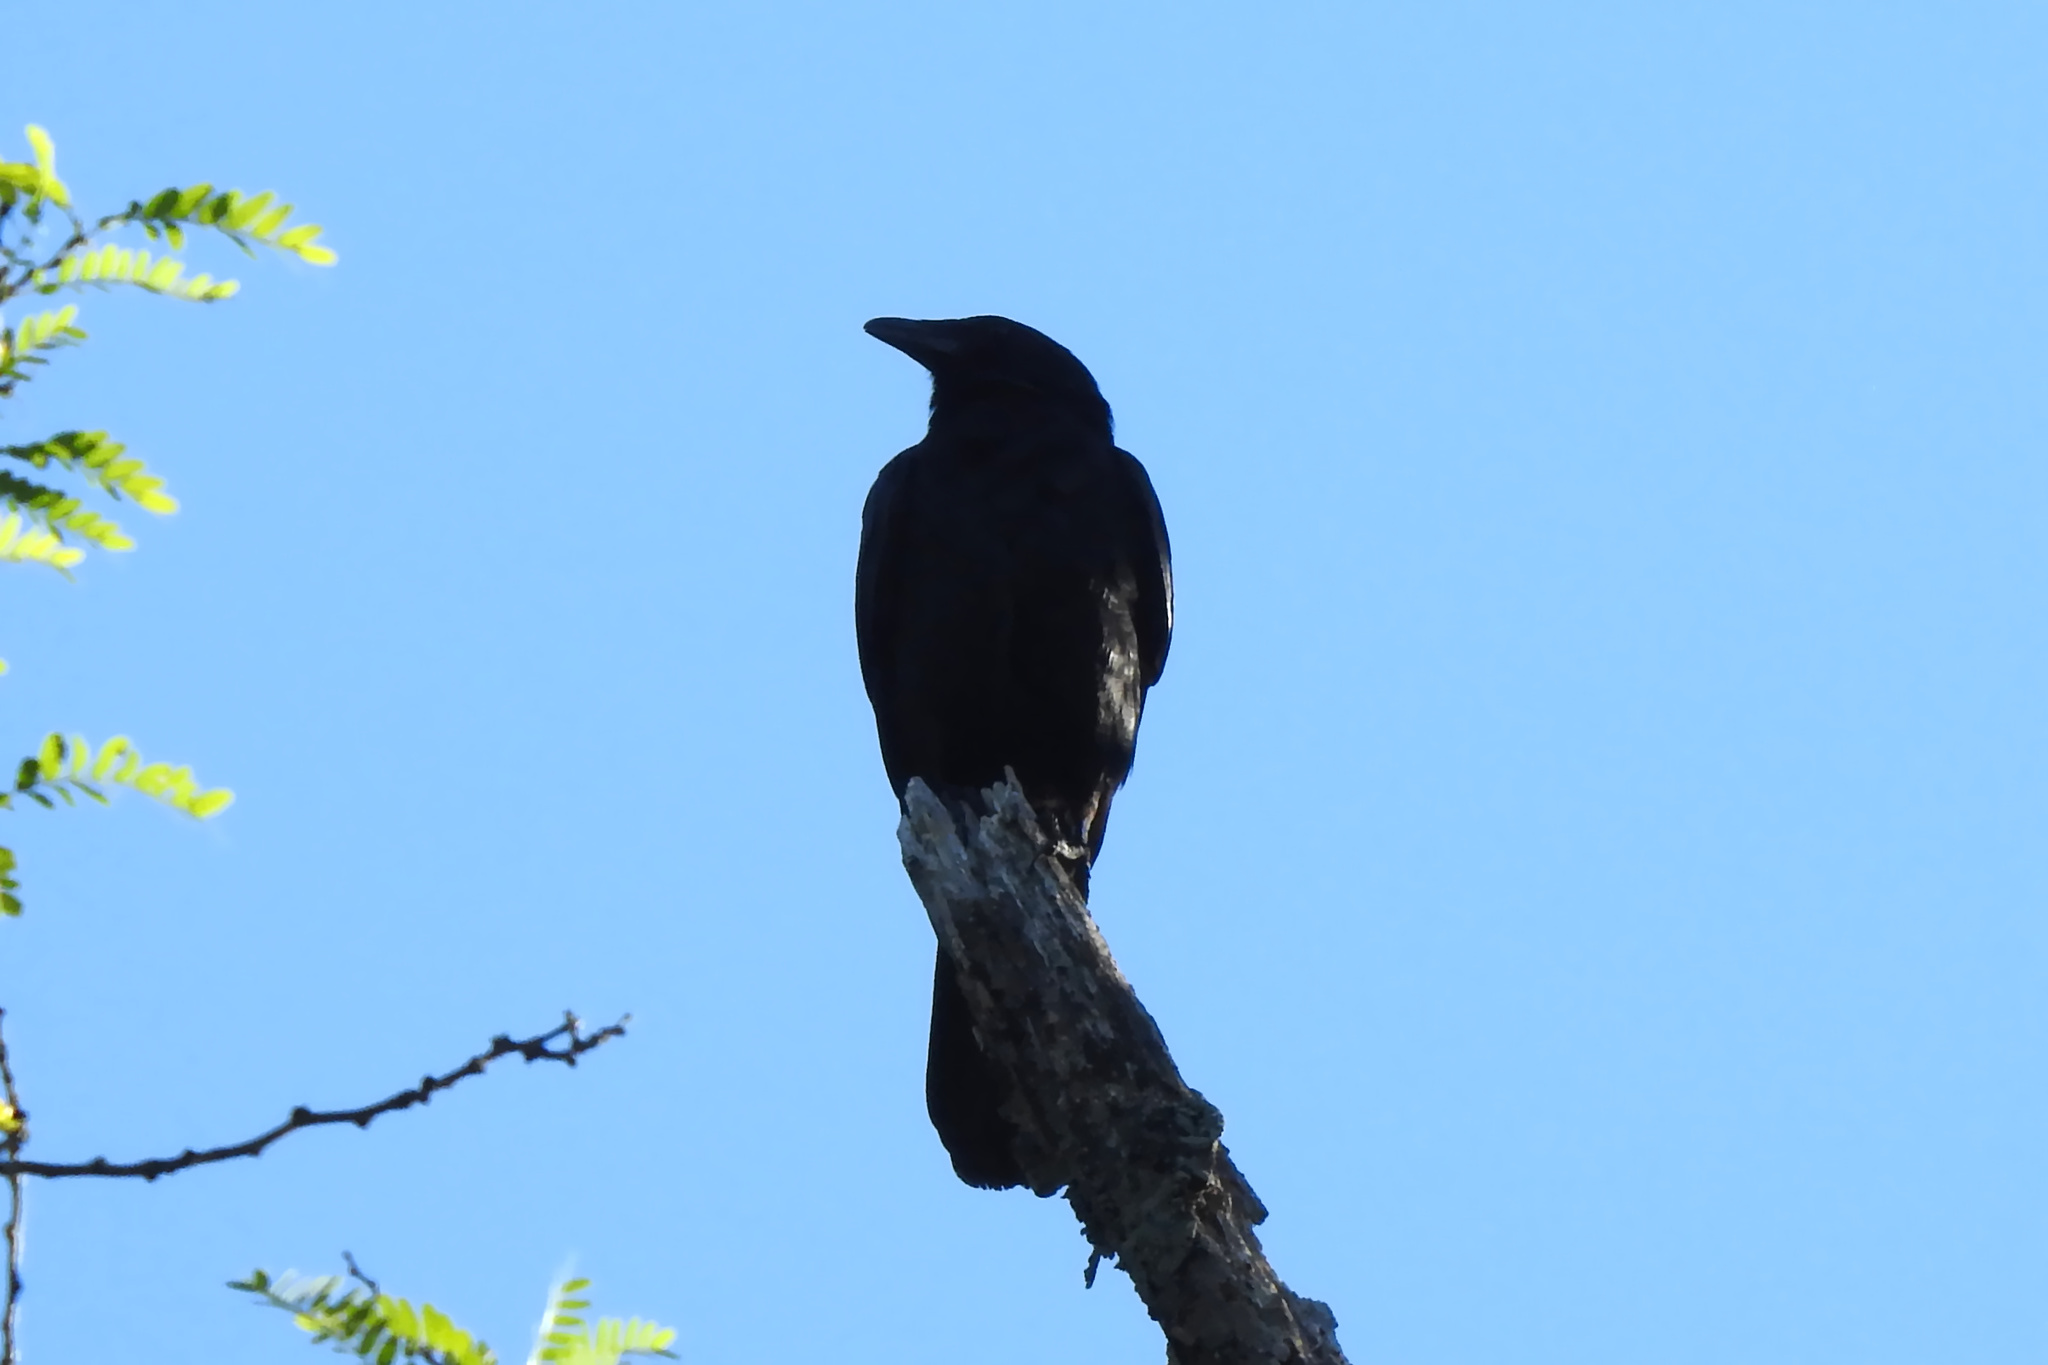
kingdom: Animalia
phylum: Chordata
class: Aves
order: Passeriformes
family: Corvidae
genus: Corvus
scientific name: Corvus ossifragus
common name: Fish crow
